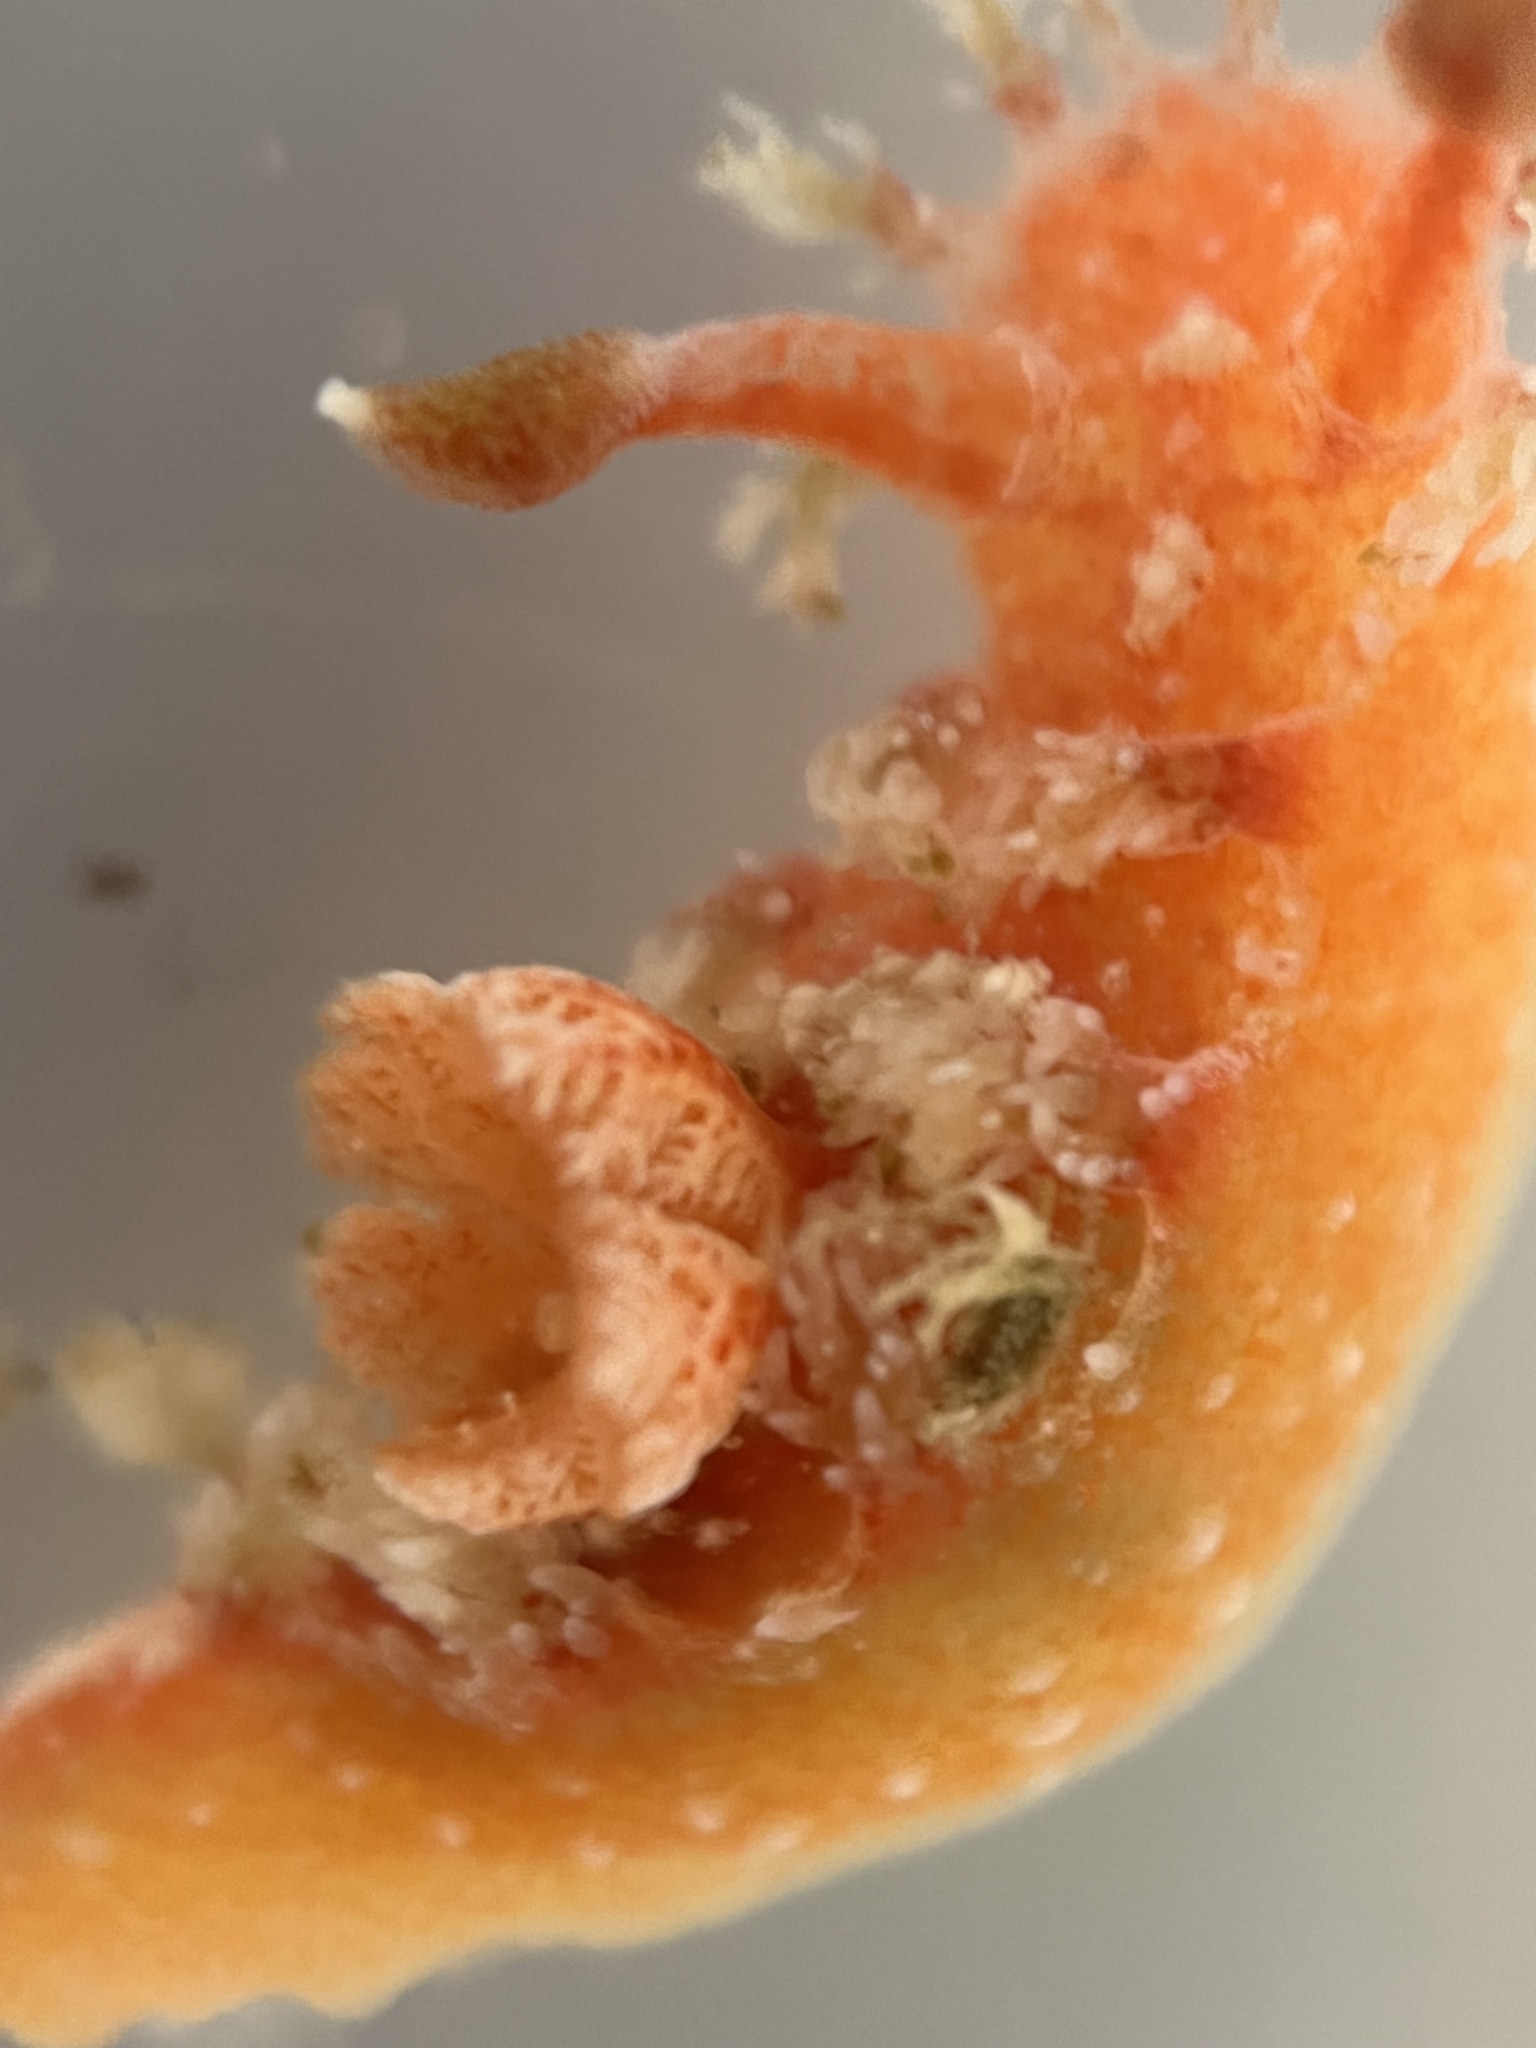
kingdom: Animalia
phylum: Mollusca
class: Gastropoda
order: Nudibranchia
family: Polyceridae
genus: Kaloplocamus
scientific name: Kaloplocamus ramosus
